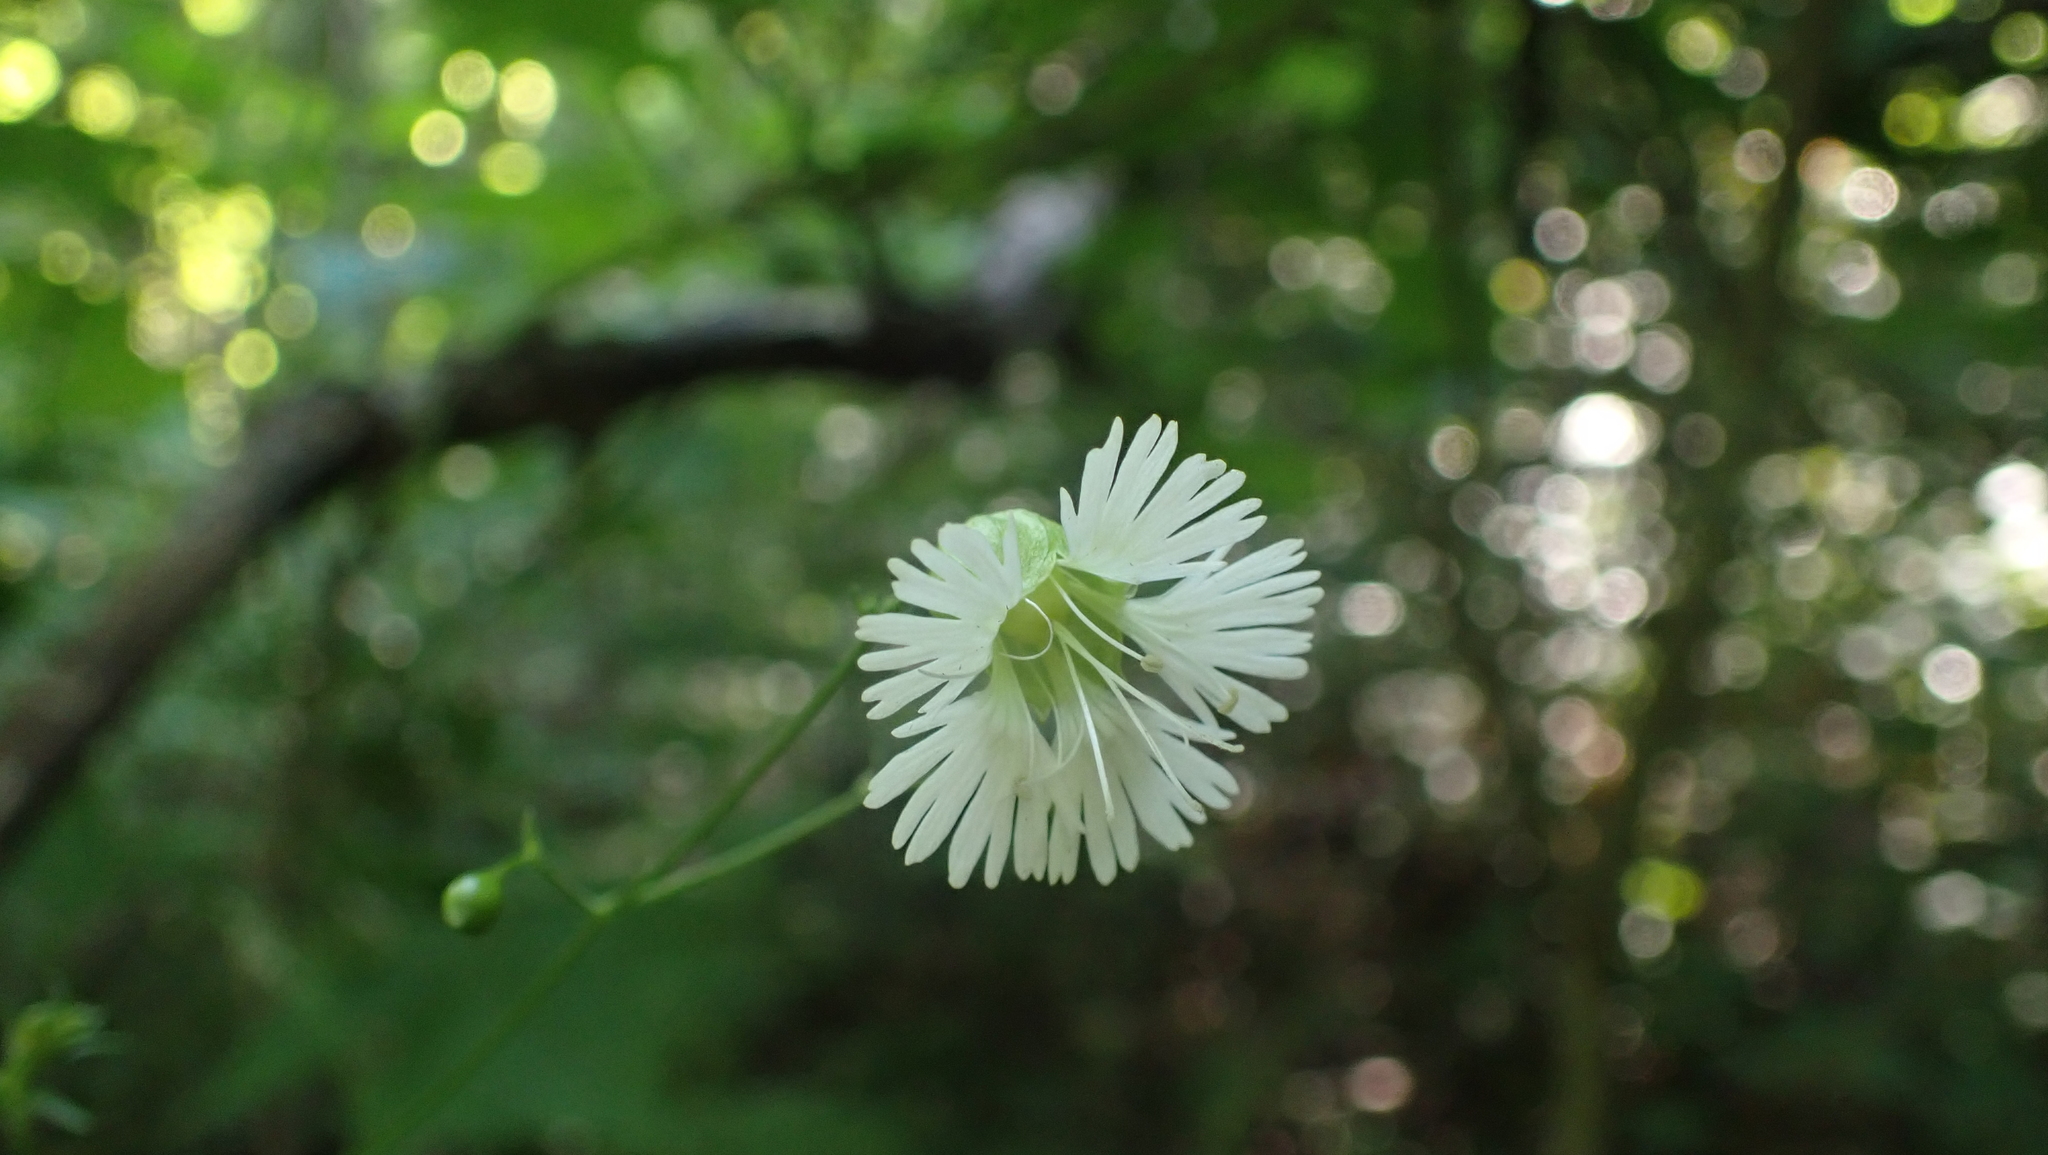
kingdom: Plantae
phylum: Tracheophyta
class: Magnoliopsida
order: Caryophyllales
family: Caryophyllaceae
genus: Silene
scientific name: Silene stellata
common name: Starry campion
